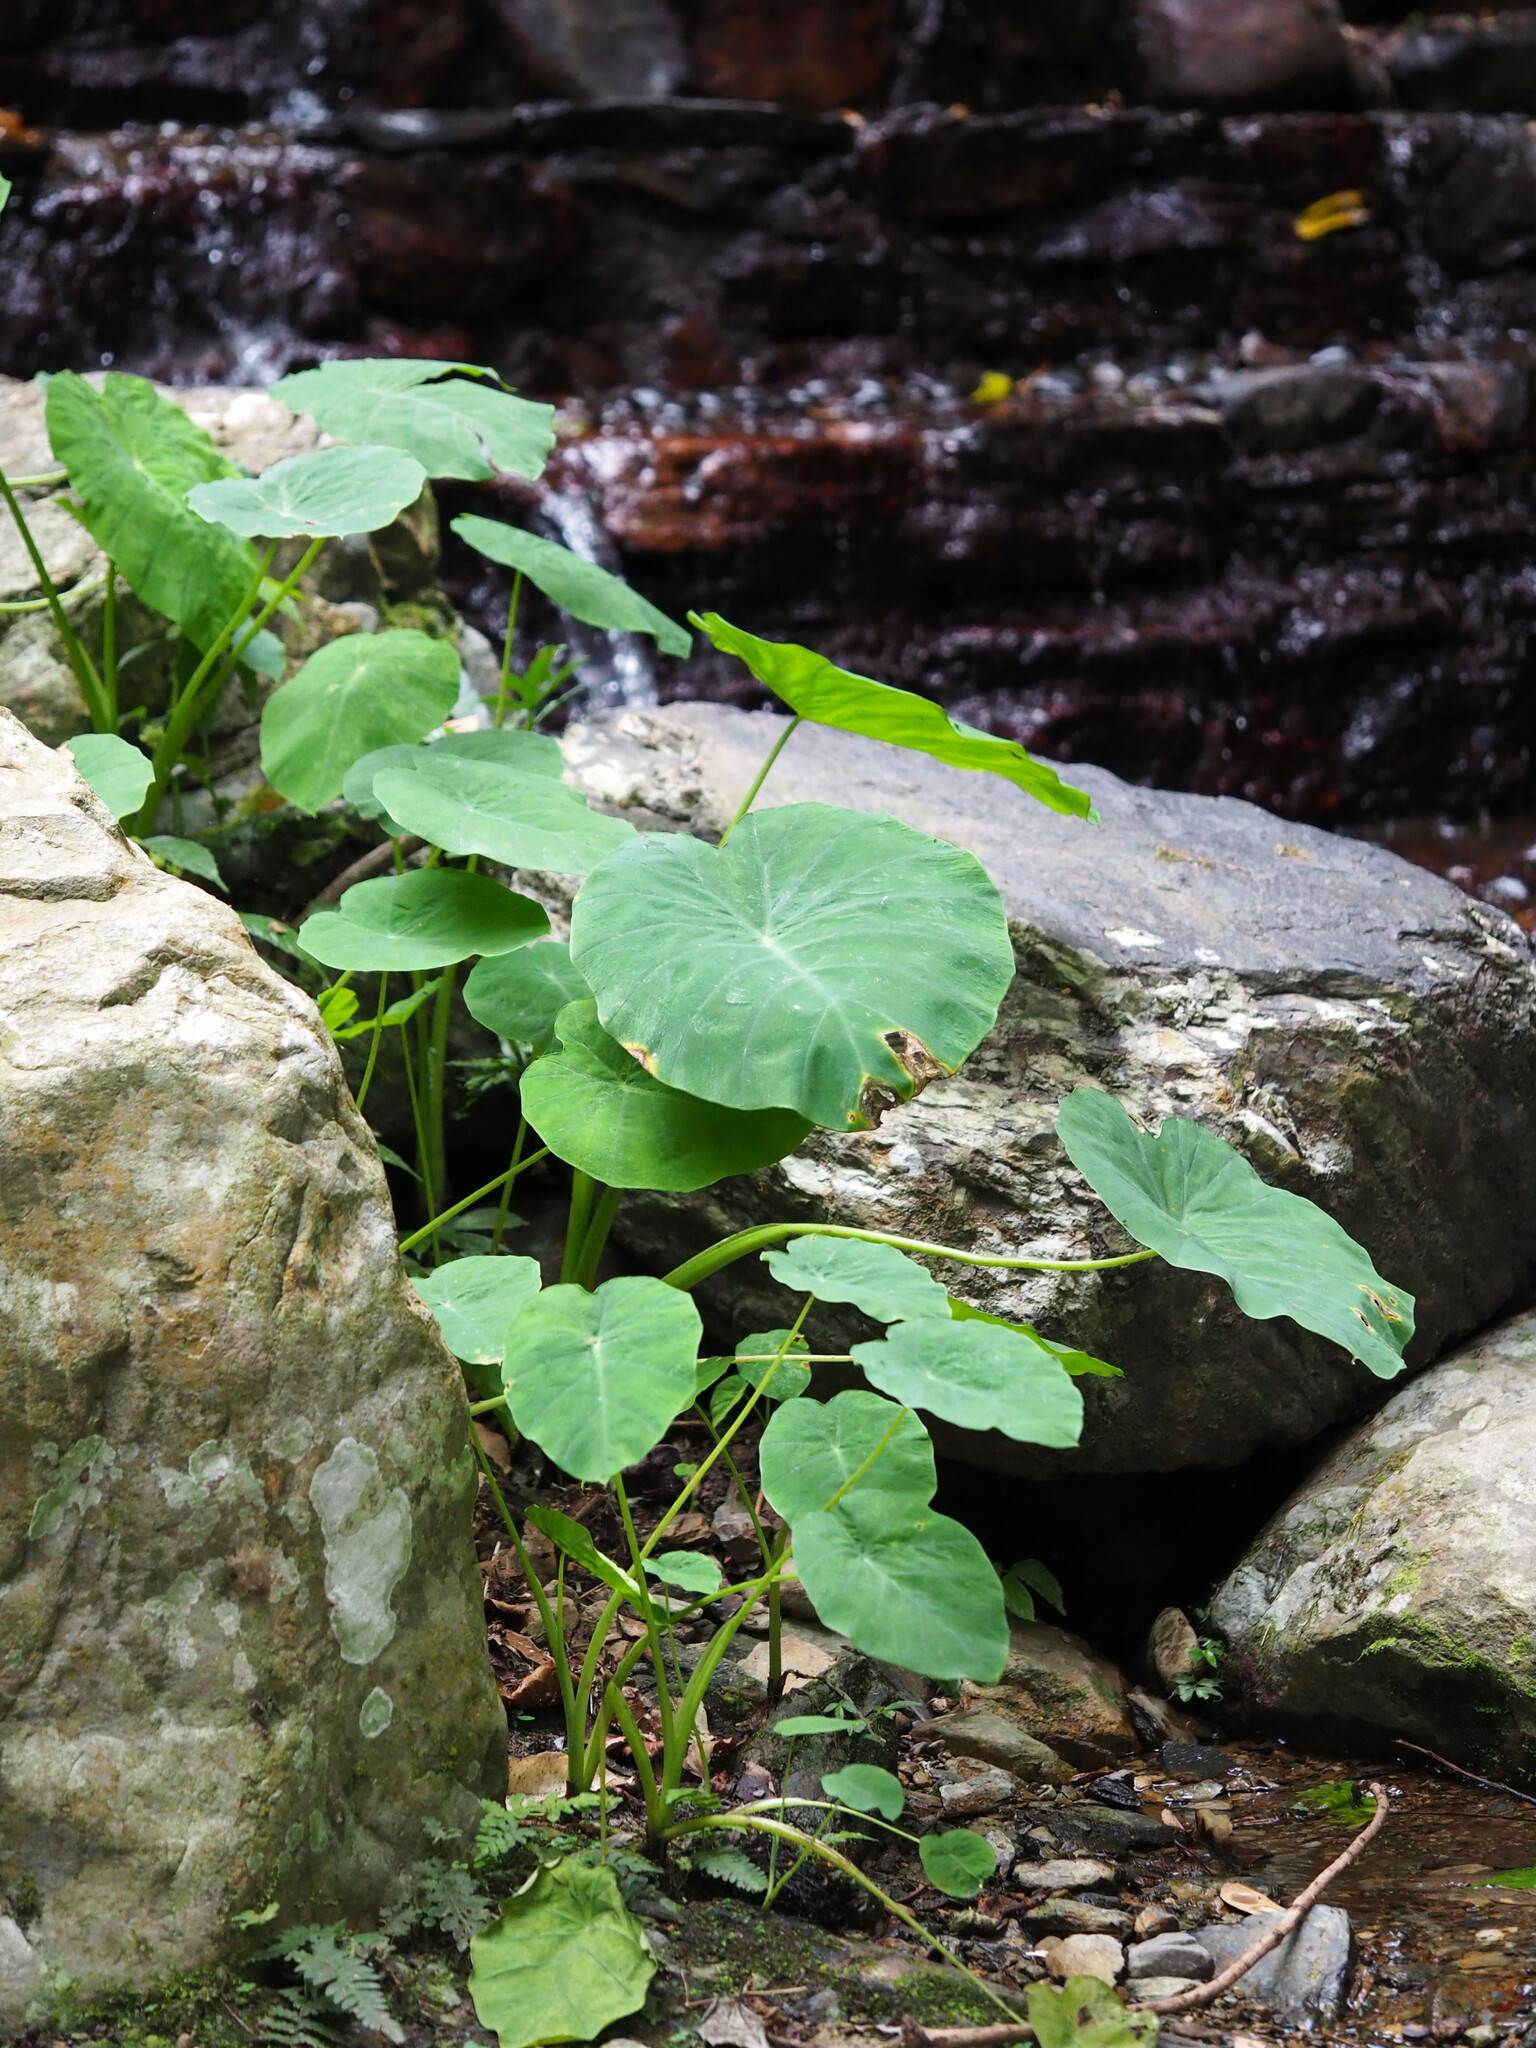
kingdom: Plantae
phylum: Tracheophyta
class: Liliopsida
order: Alismatales
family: Araceae
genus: Colocasia
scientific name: Colocasia esculenta
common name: Taro
